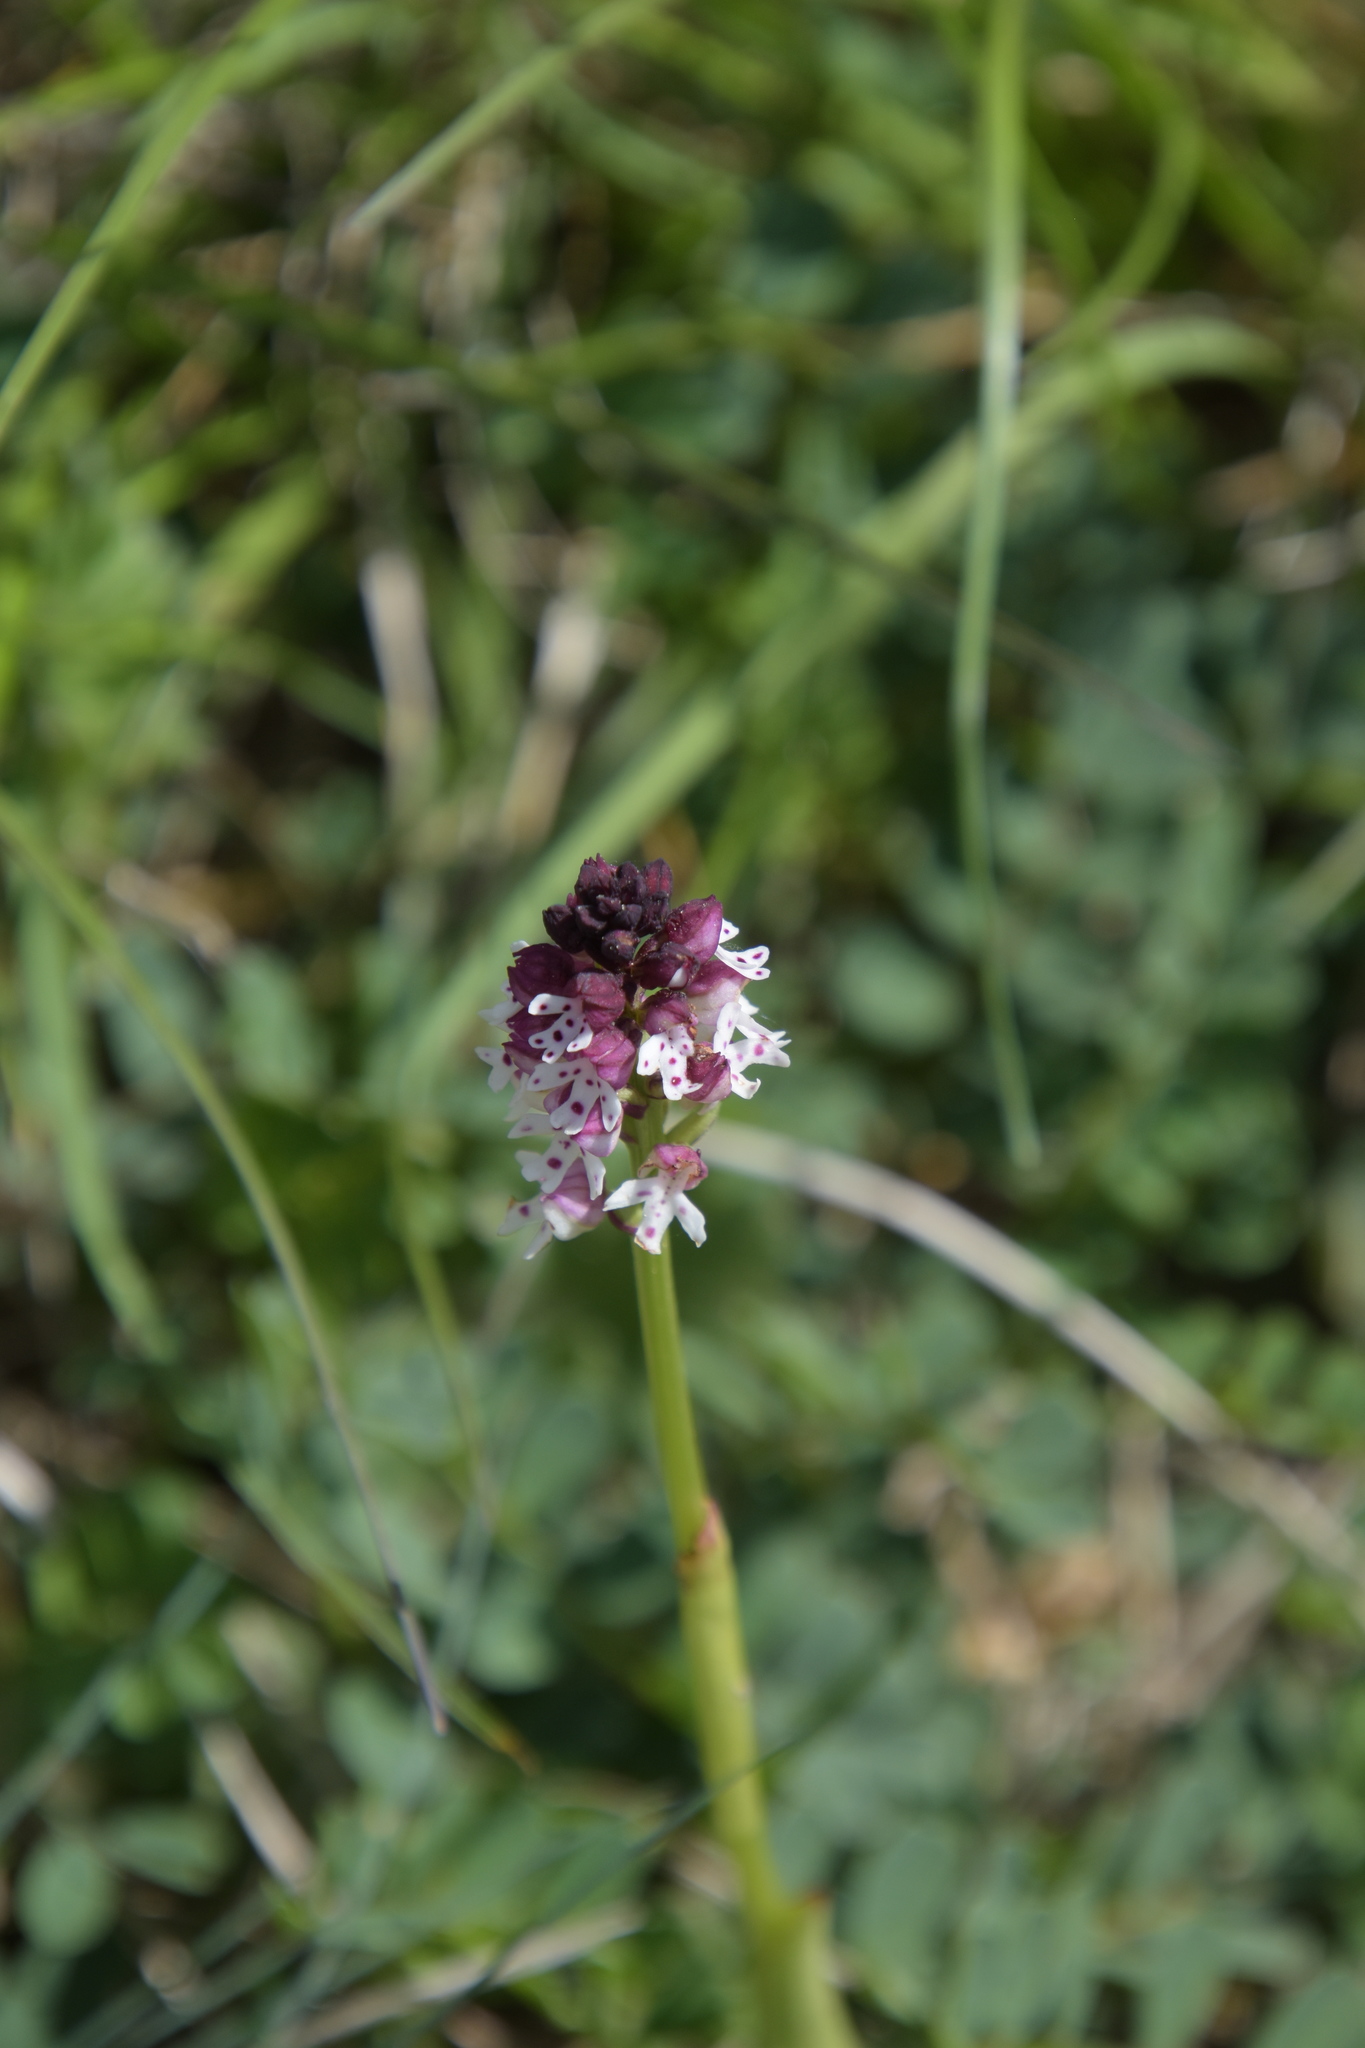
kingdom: Plantae
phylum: Tracheophyta
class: Liliopsida
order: Asparagales
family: Orchidaceae
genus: Neotinea
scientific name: Neotinea ustulata
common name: Burnt orchid
